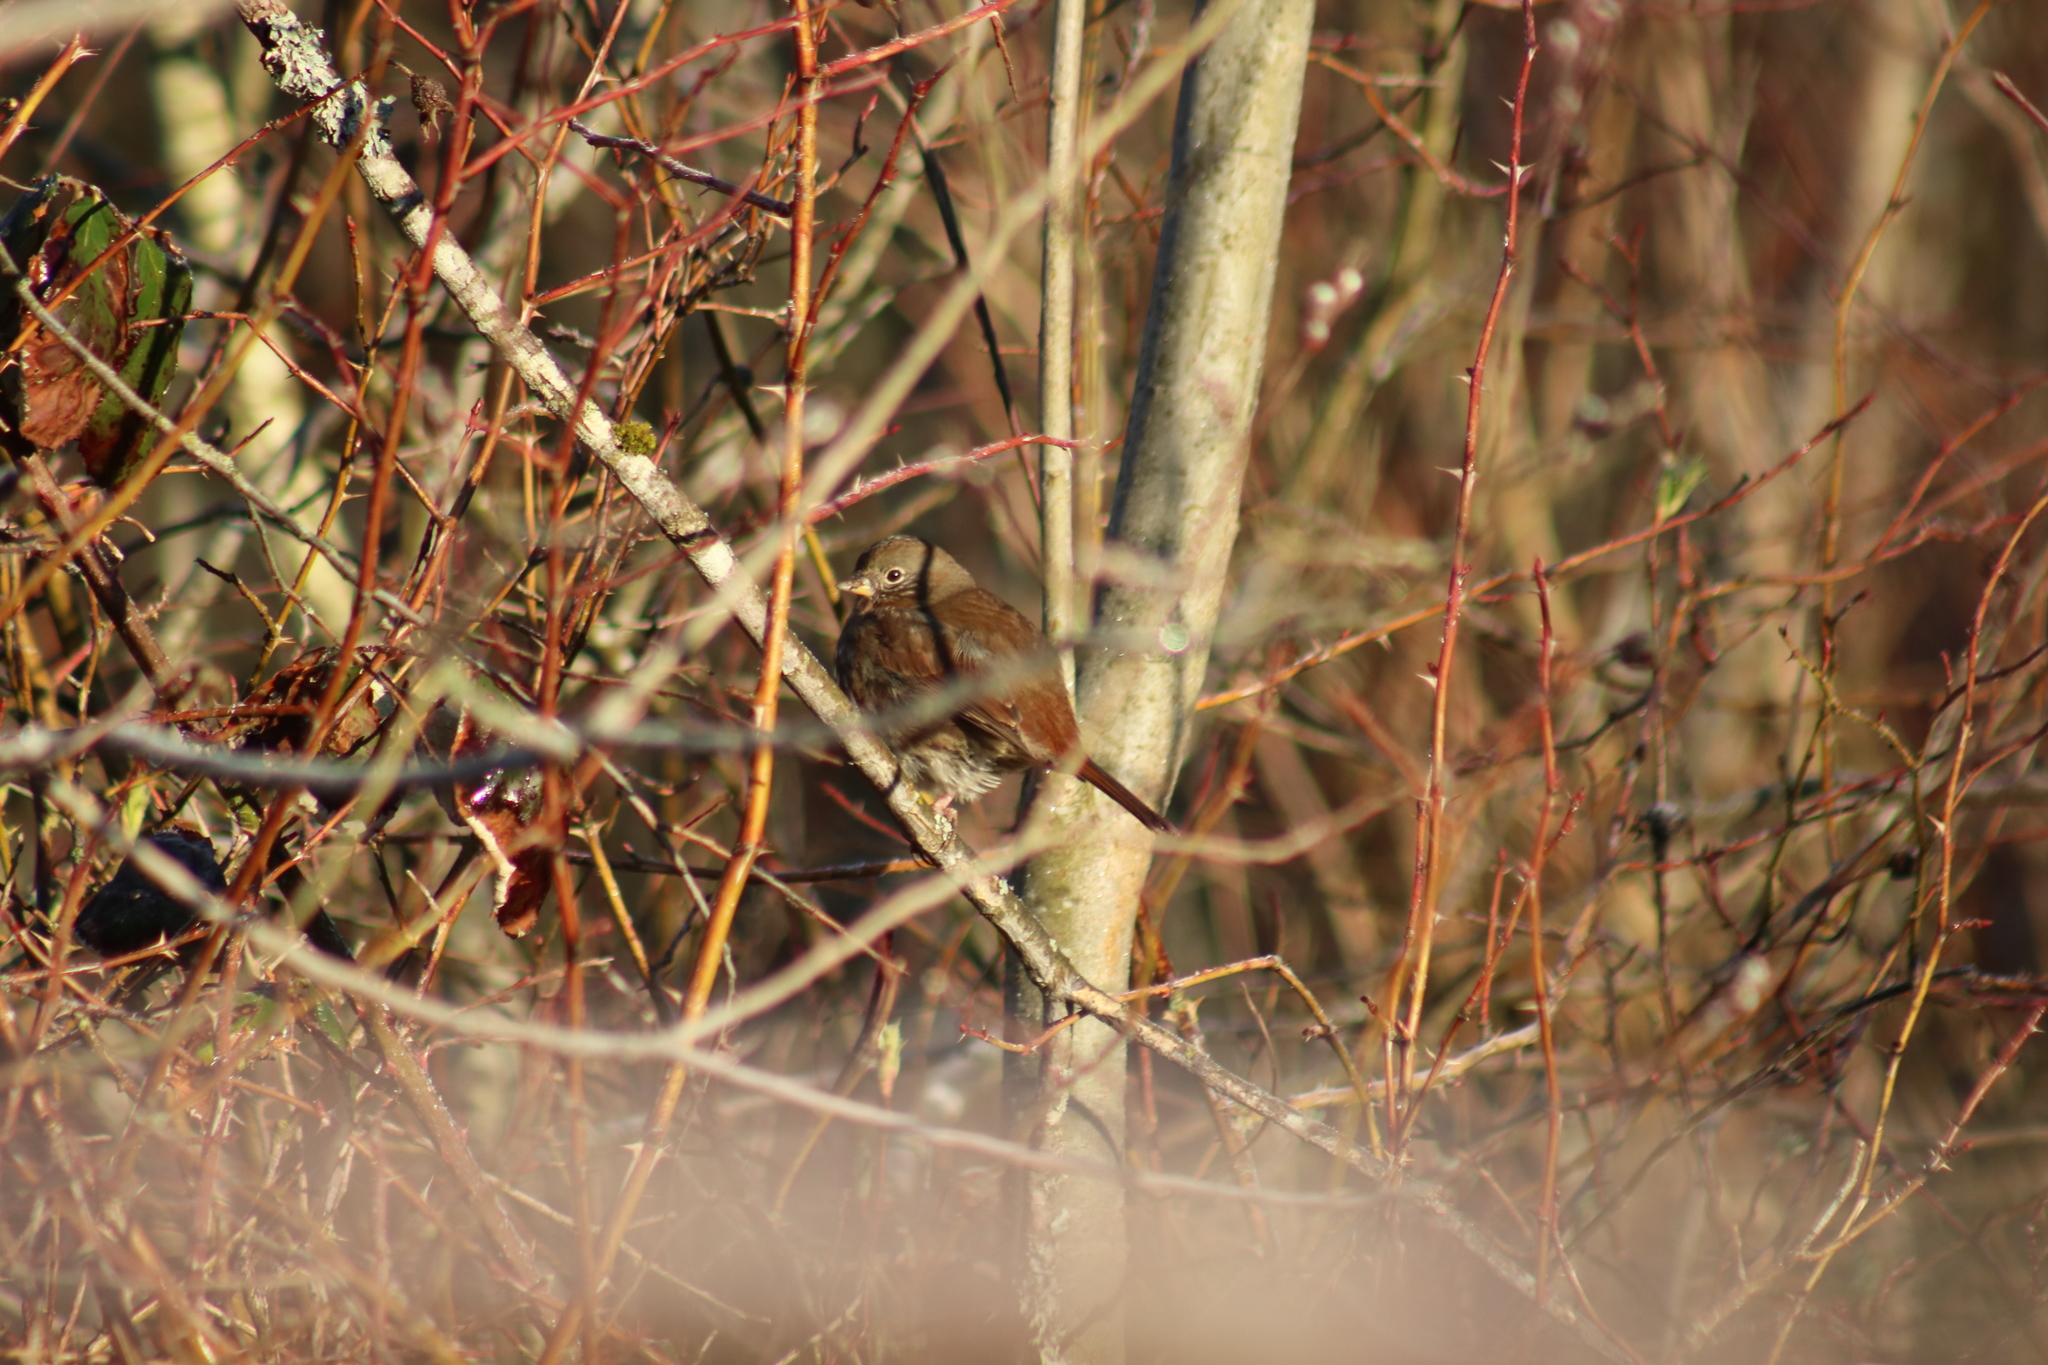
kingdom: Animalia
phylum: Chordata
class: Aves
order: Passeriformes
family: Passerellidae
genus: Passerella
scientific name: Passerella iliaca
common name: Fox sparrow
